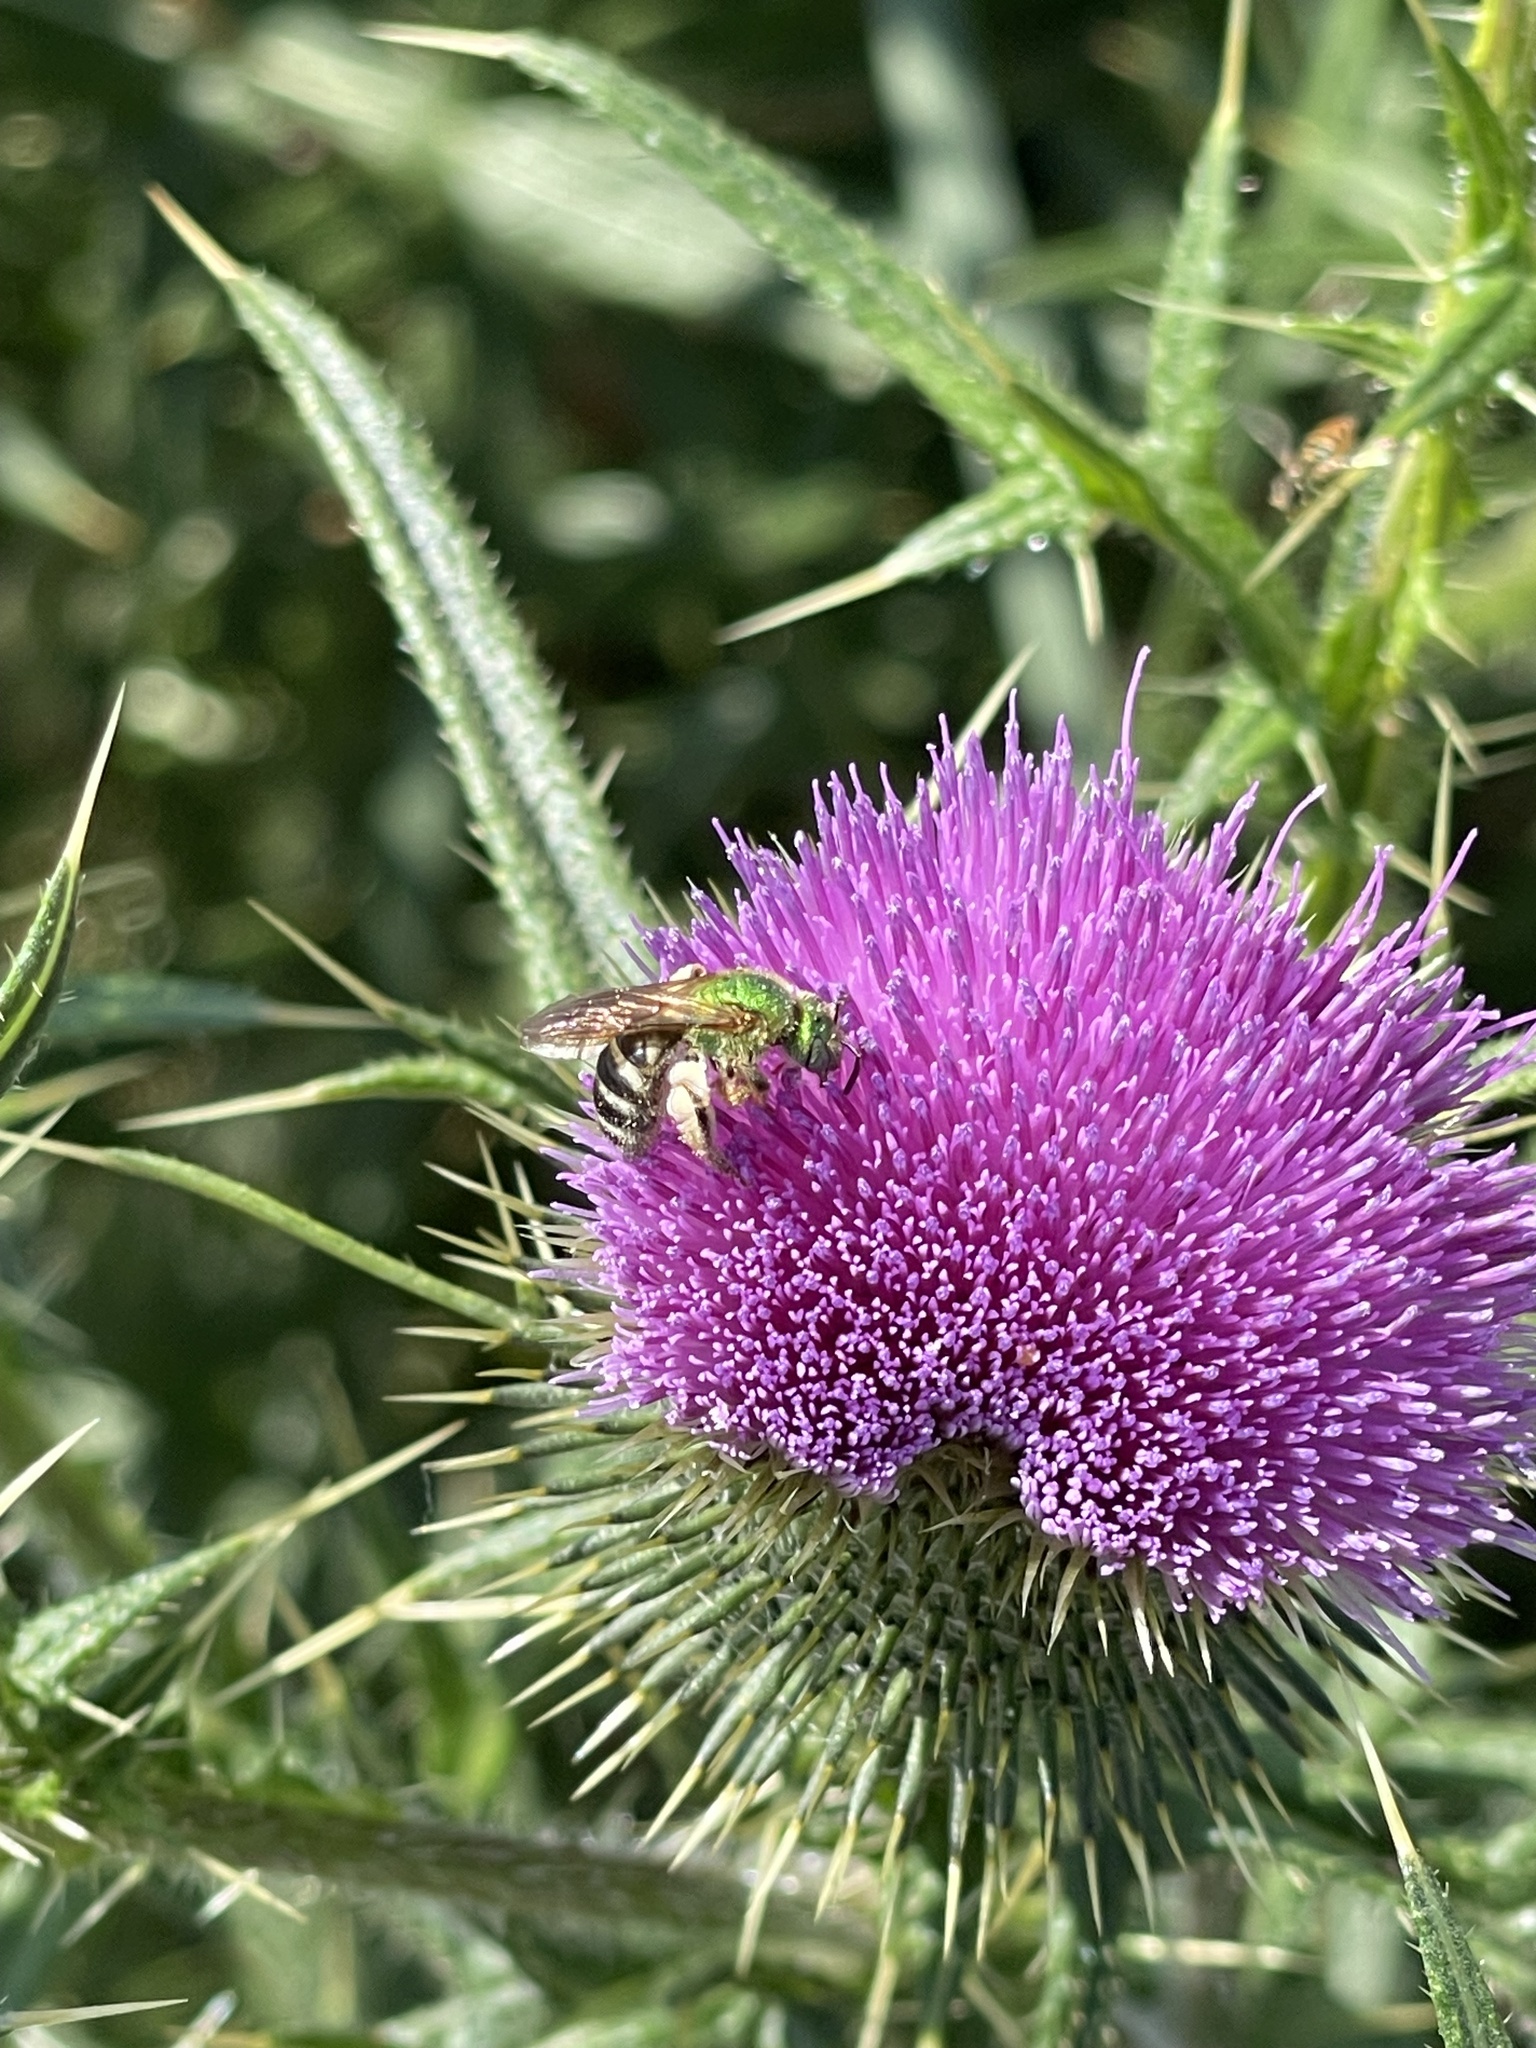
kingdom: Animalia
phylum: Arthropoda
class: Insecta
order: Hymenoptera
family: Halictidae
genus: Agapostemon
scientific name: Agapostemon virescens
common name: Bicolored striped sweat bee
